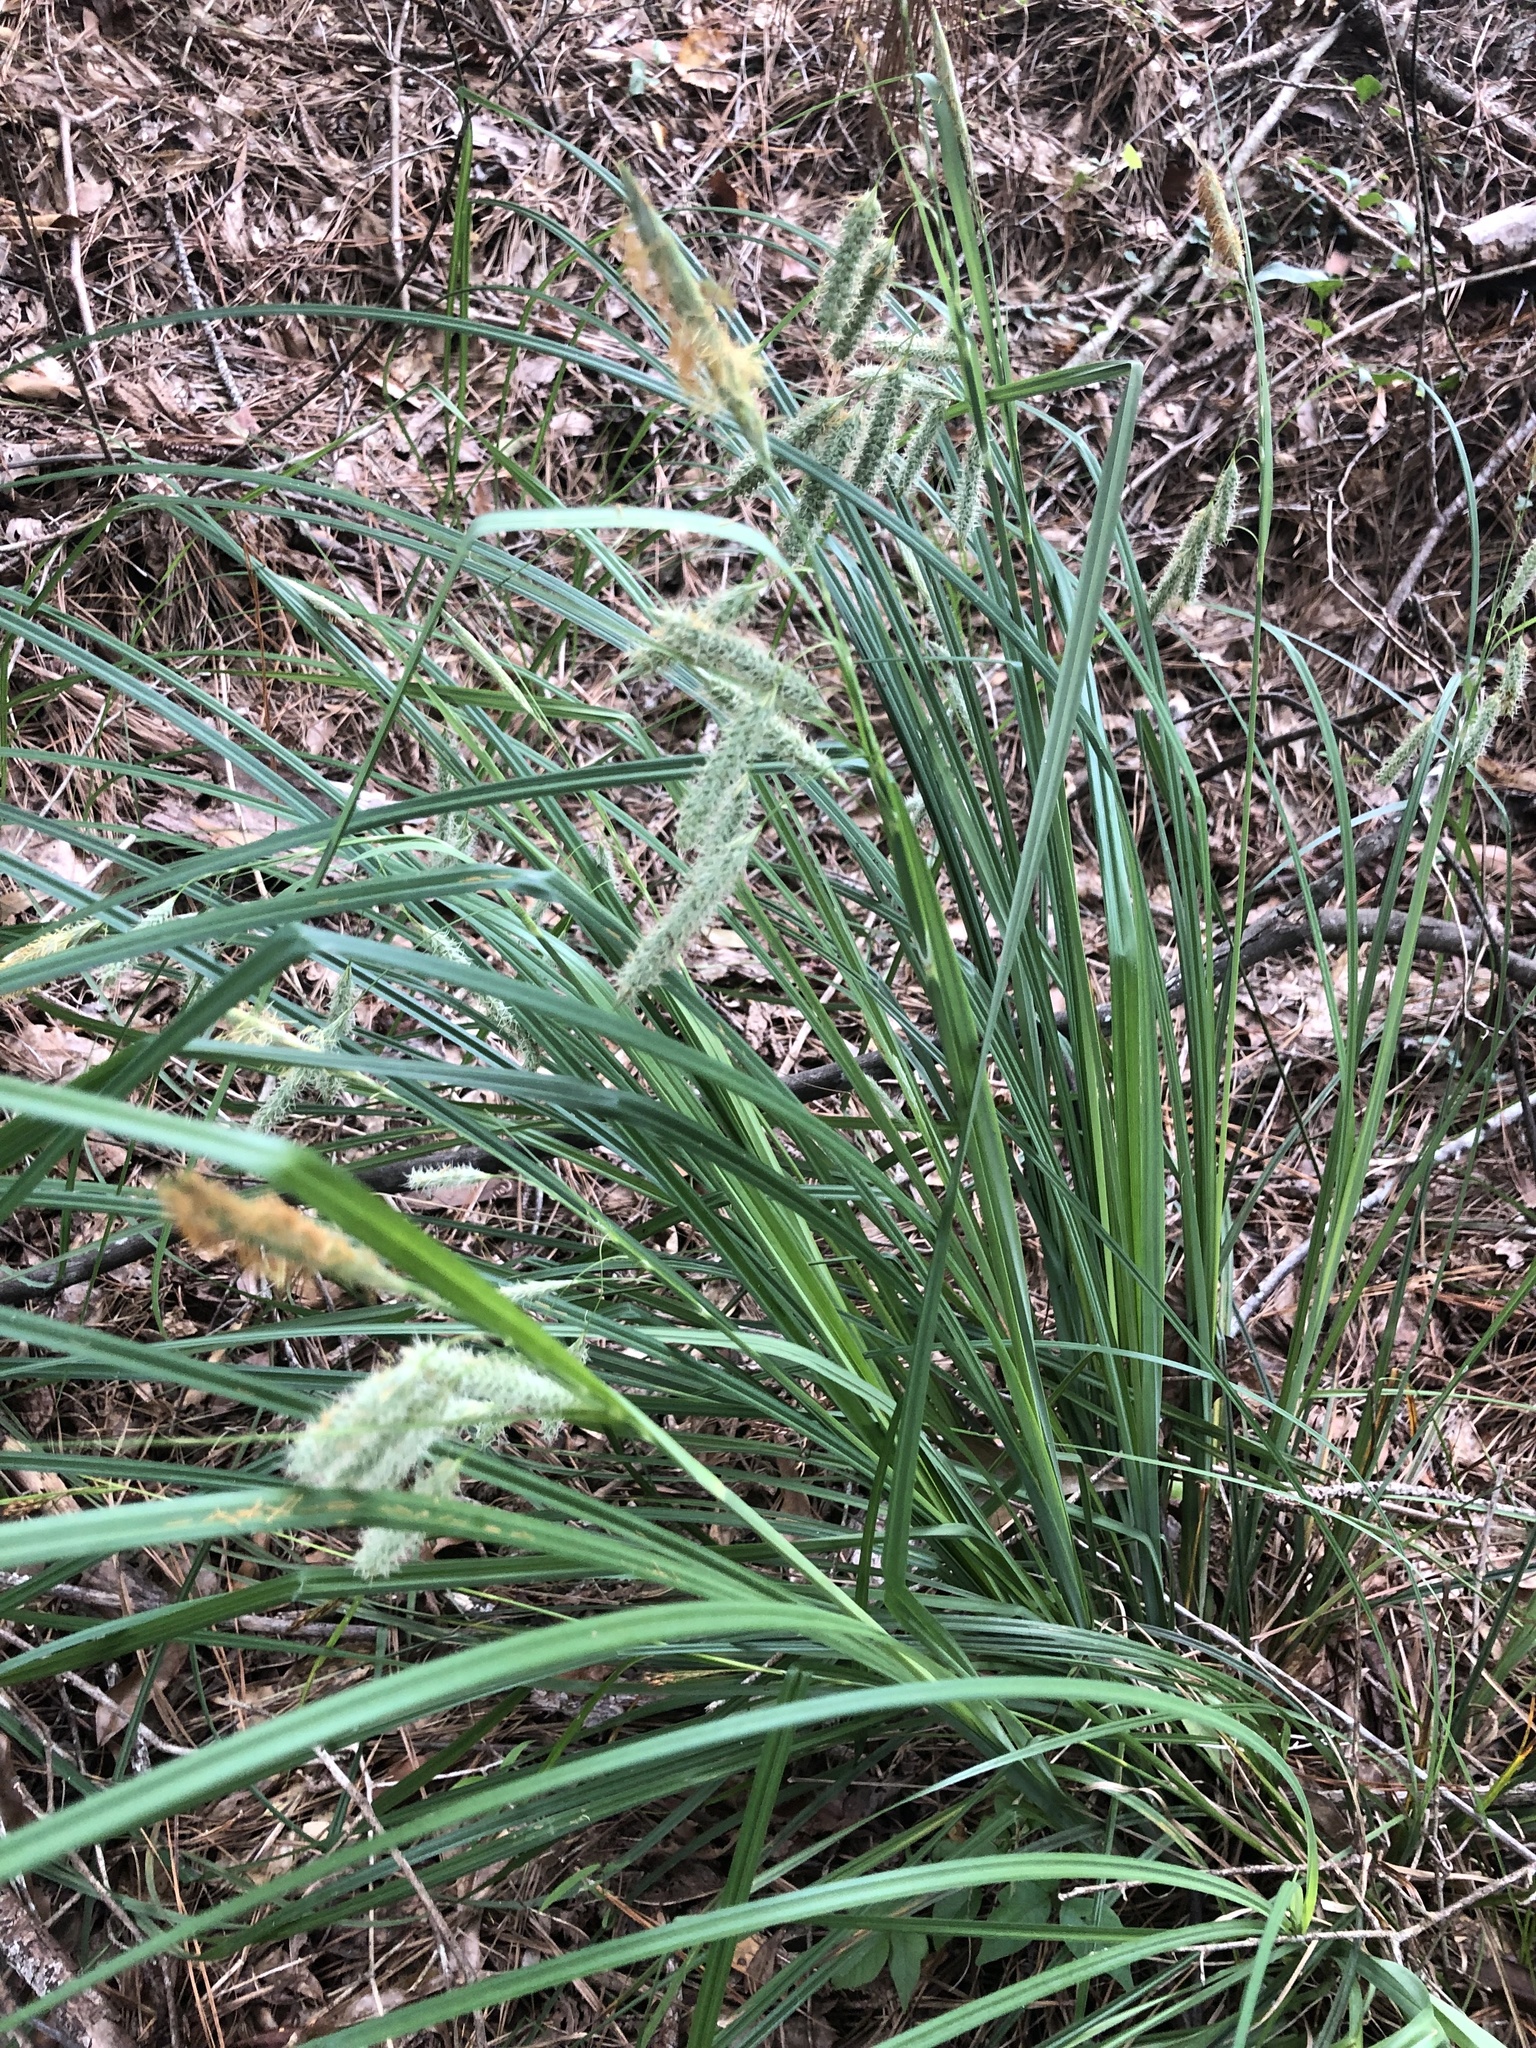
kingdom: Plantae
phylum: Tracheophyta
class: Liliopsida
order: Poales
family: Cyperaceae
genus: Carex
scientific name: Carex glaucescens
